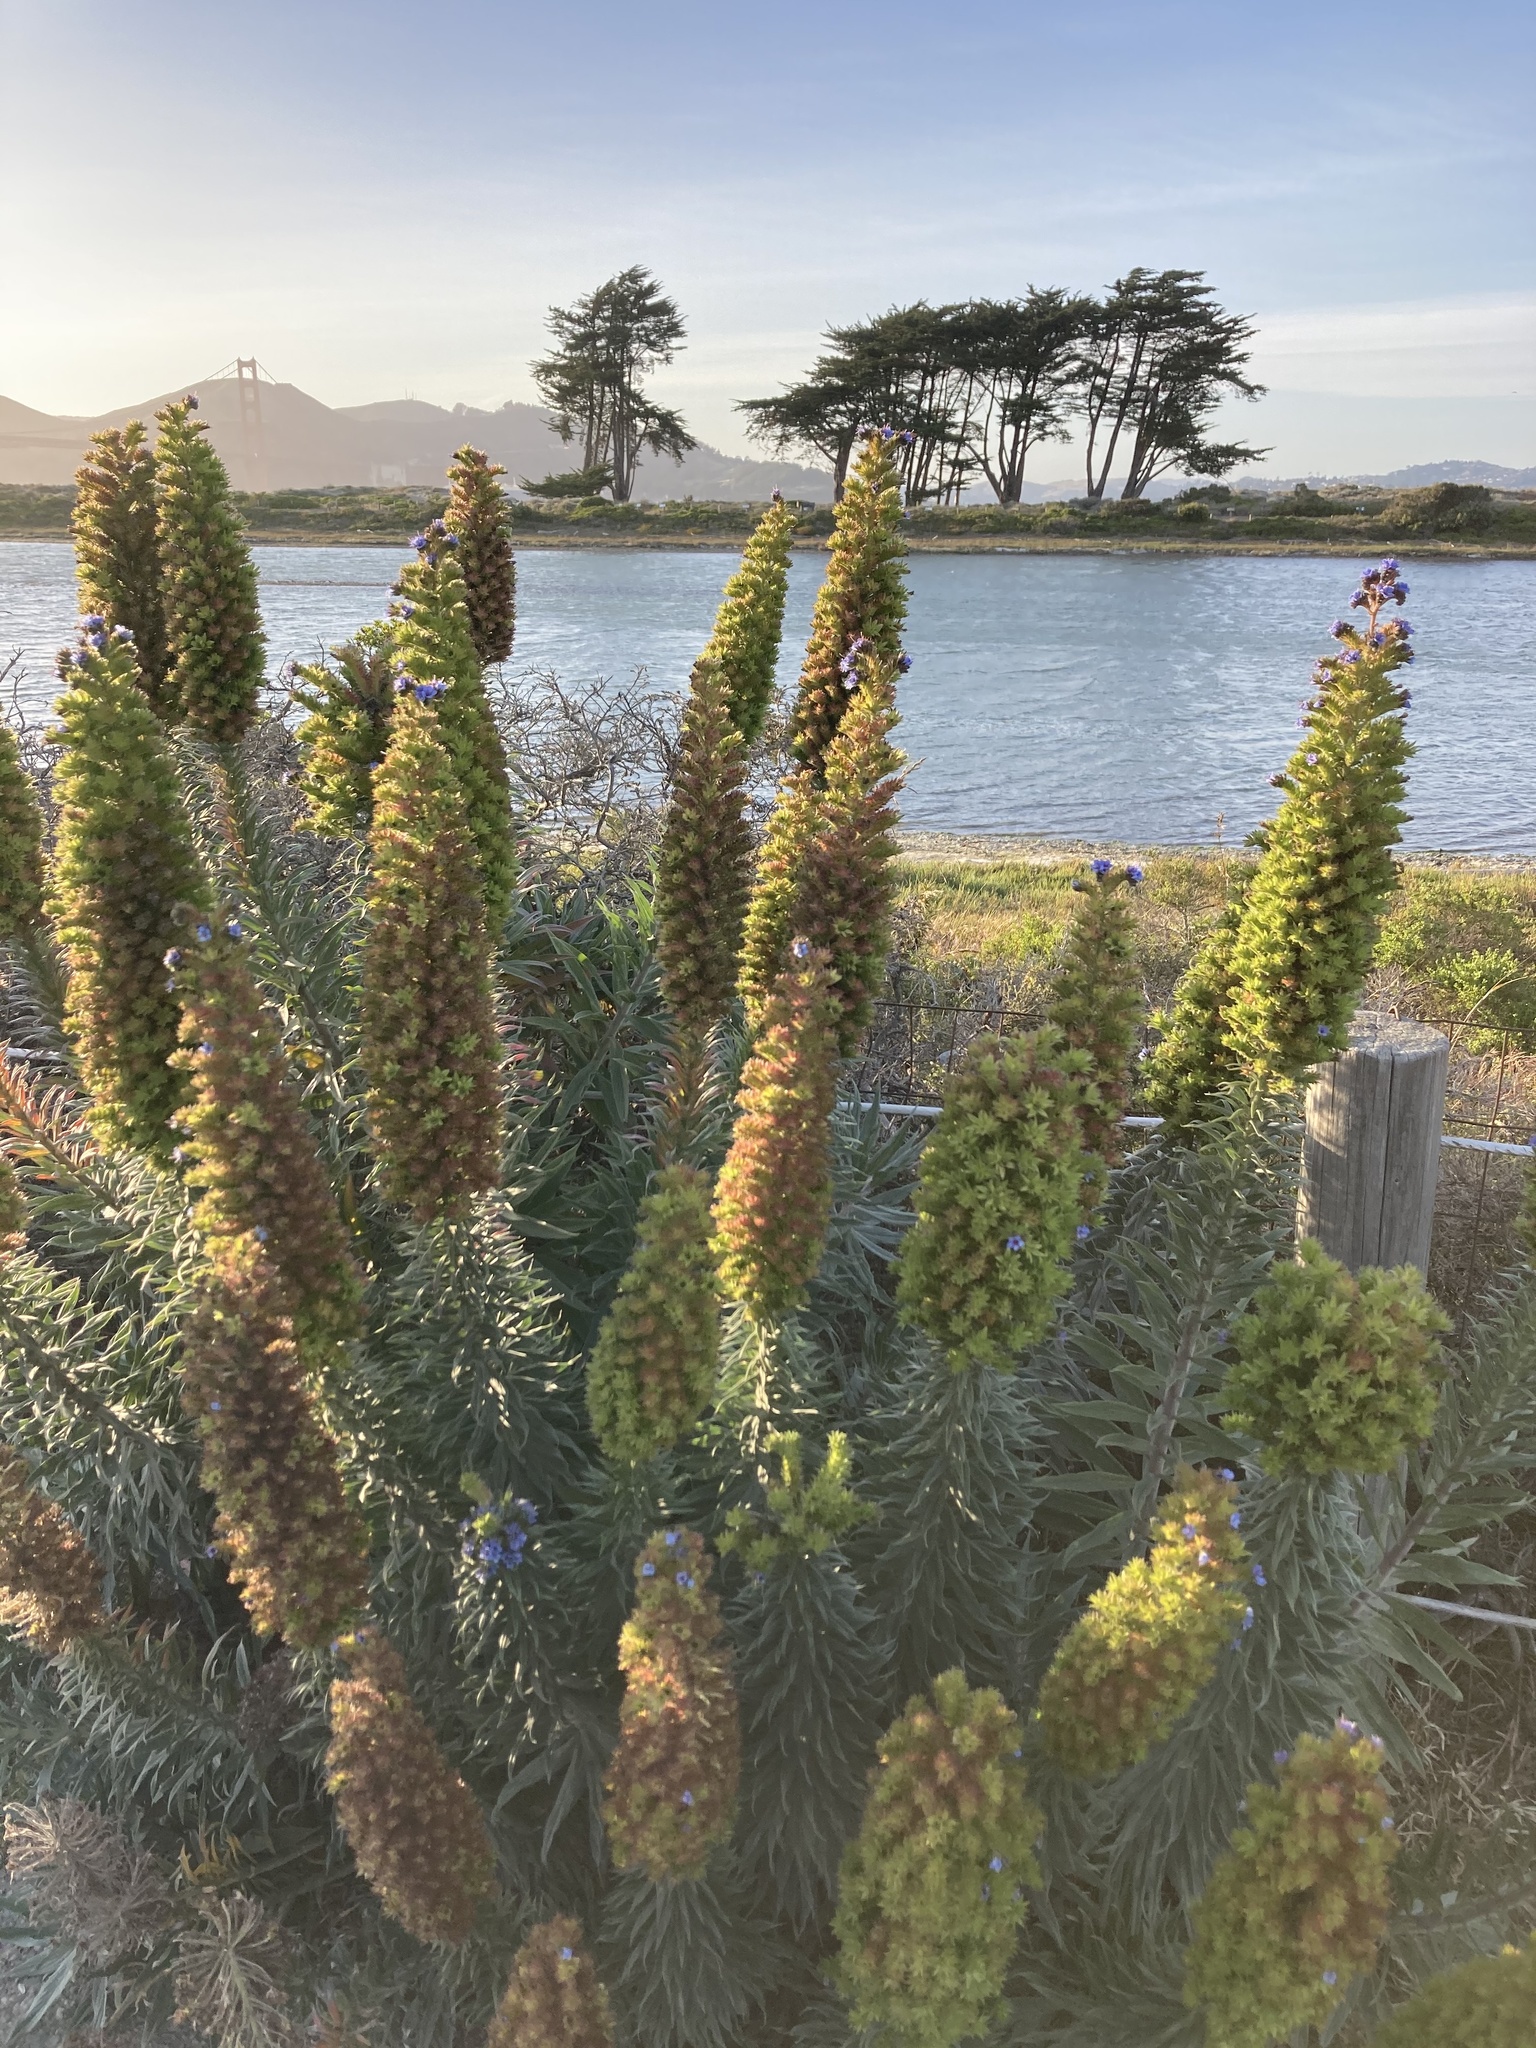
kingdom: Plantae
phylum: Tracheophyta
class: Magnoliopsida
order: Boraginales
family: Boraginaceae
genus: Echium
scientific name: Echium candicans
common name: Pride of madeira
